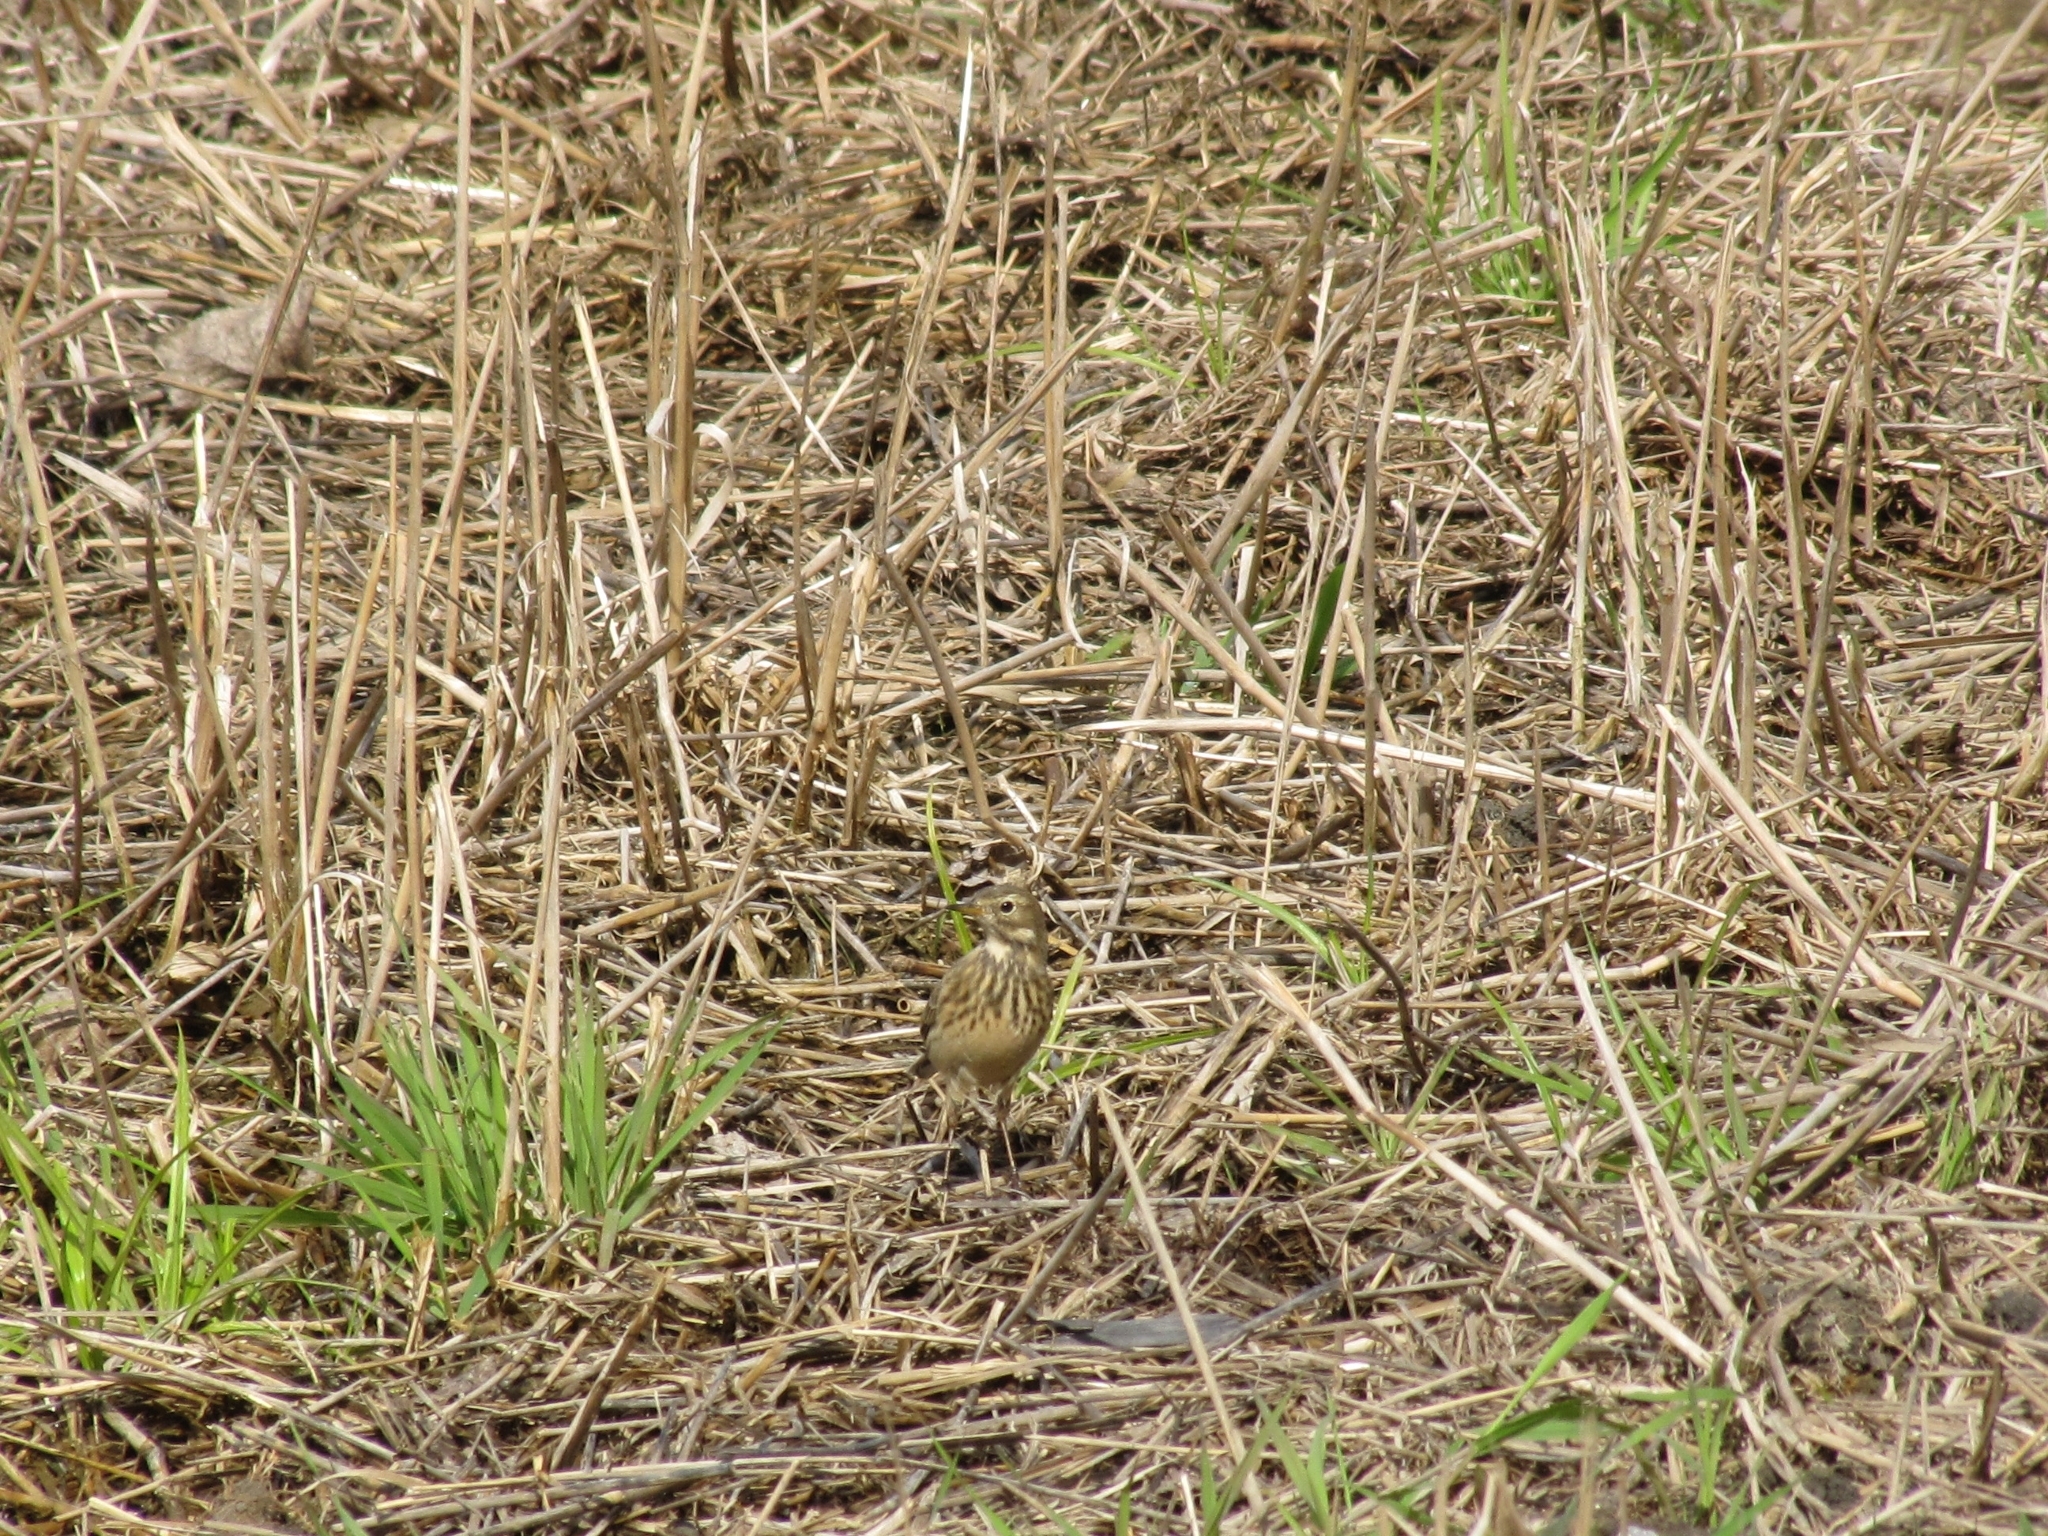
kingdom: Animalia
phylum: Chordata
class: Aves
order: Passeriformes
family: Motacillidae
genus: Anthus
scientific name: Anthus rubescens
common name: Buff-bellied pipit
